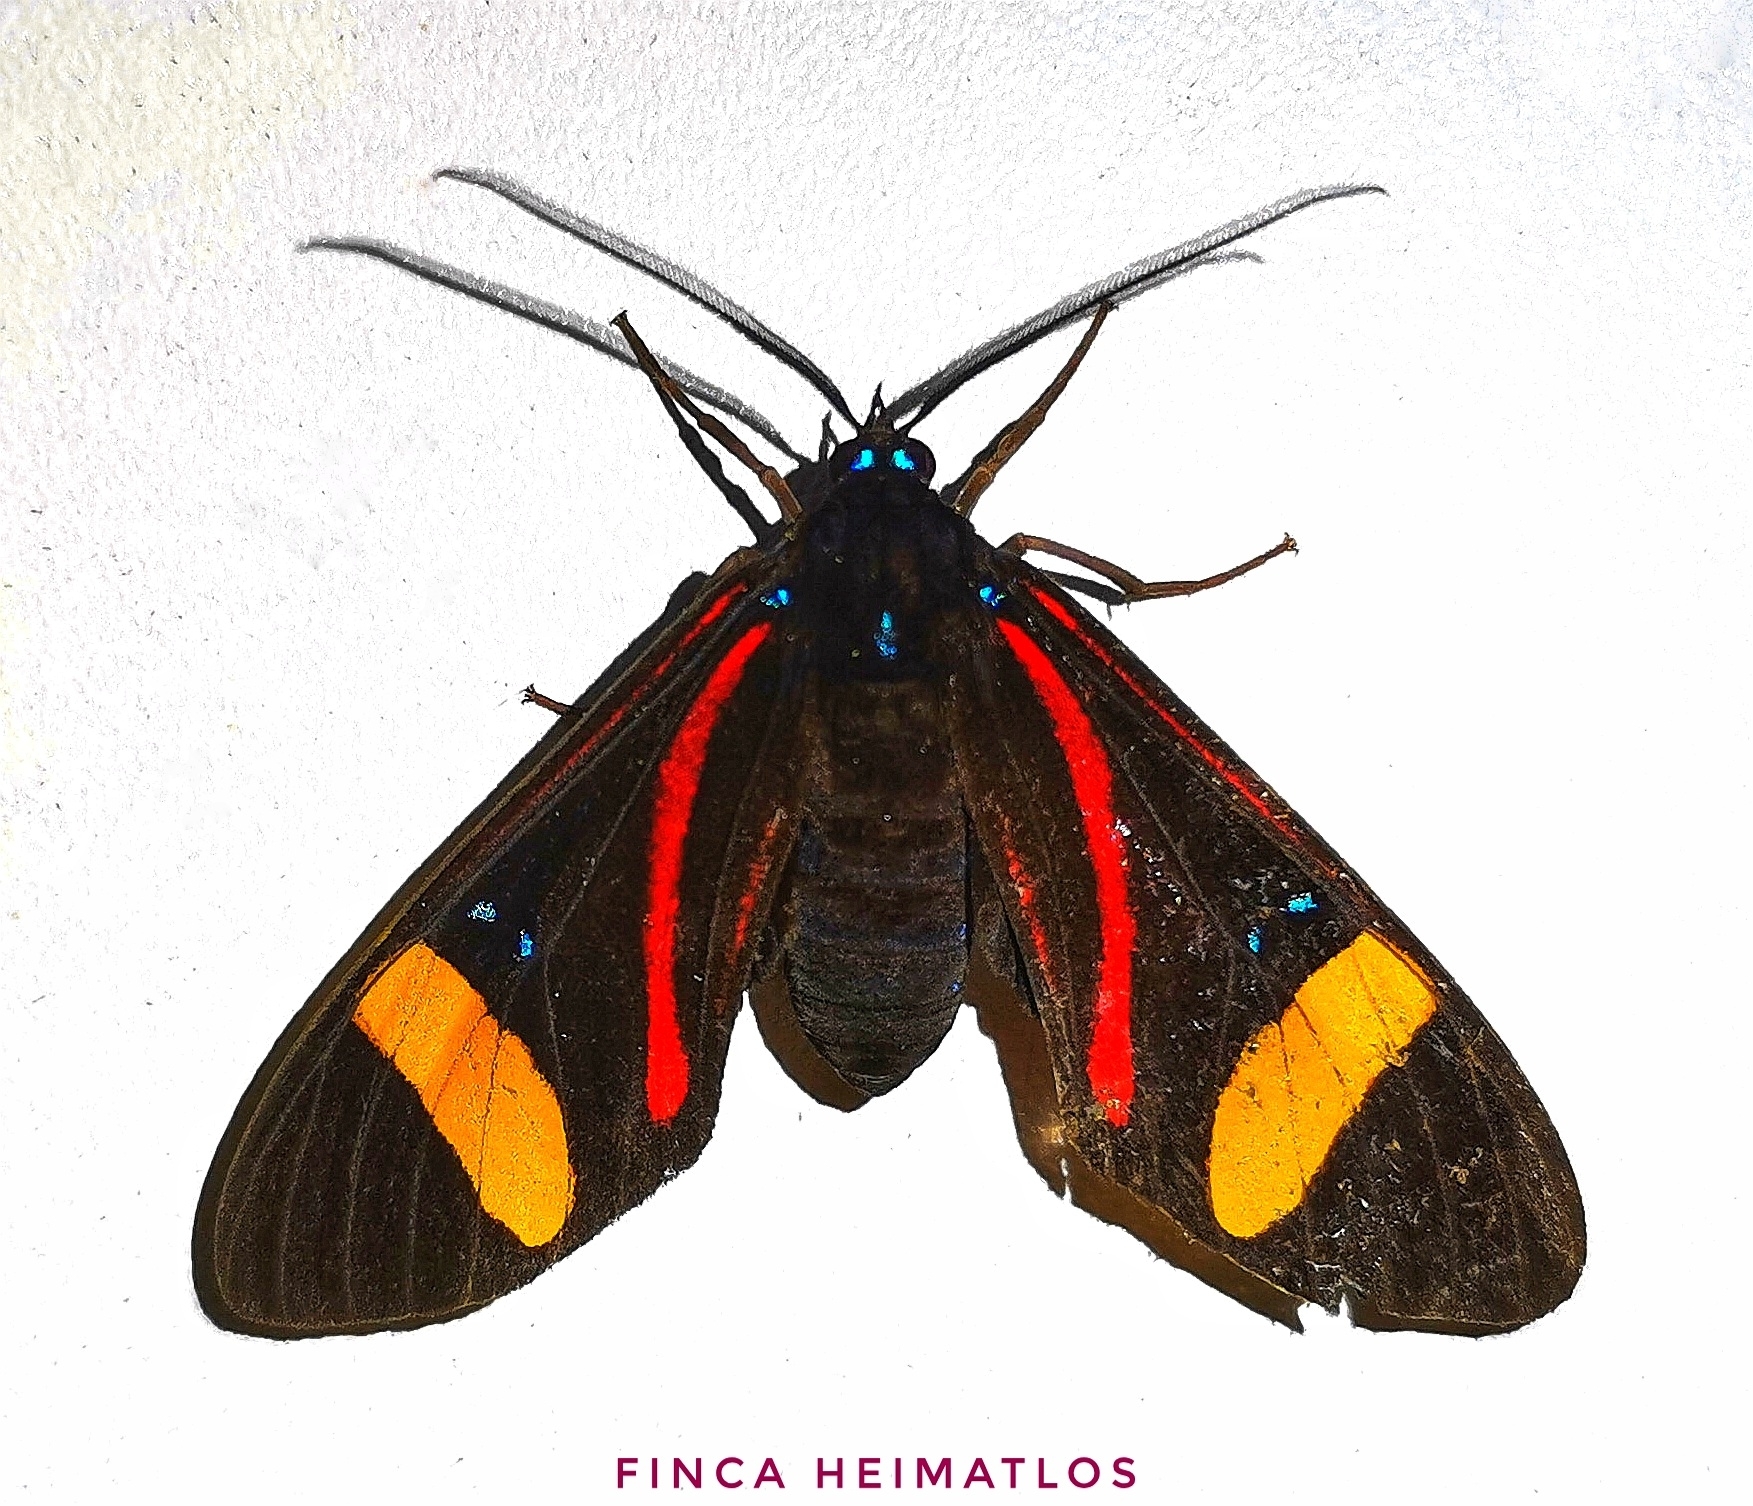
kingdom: Animalia
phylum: Arthropoda
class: Insecta
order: Lepidoptera
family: Erebidae
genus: Histioea
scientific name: Histioea amazonica
